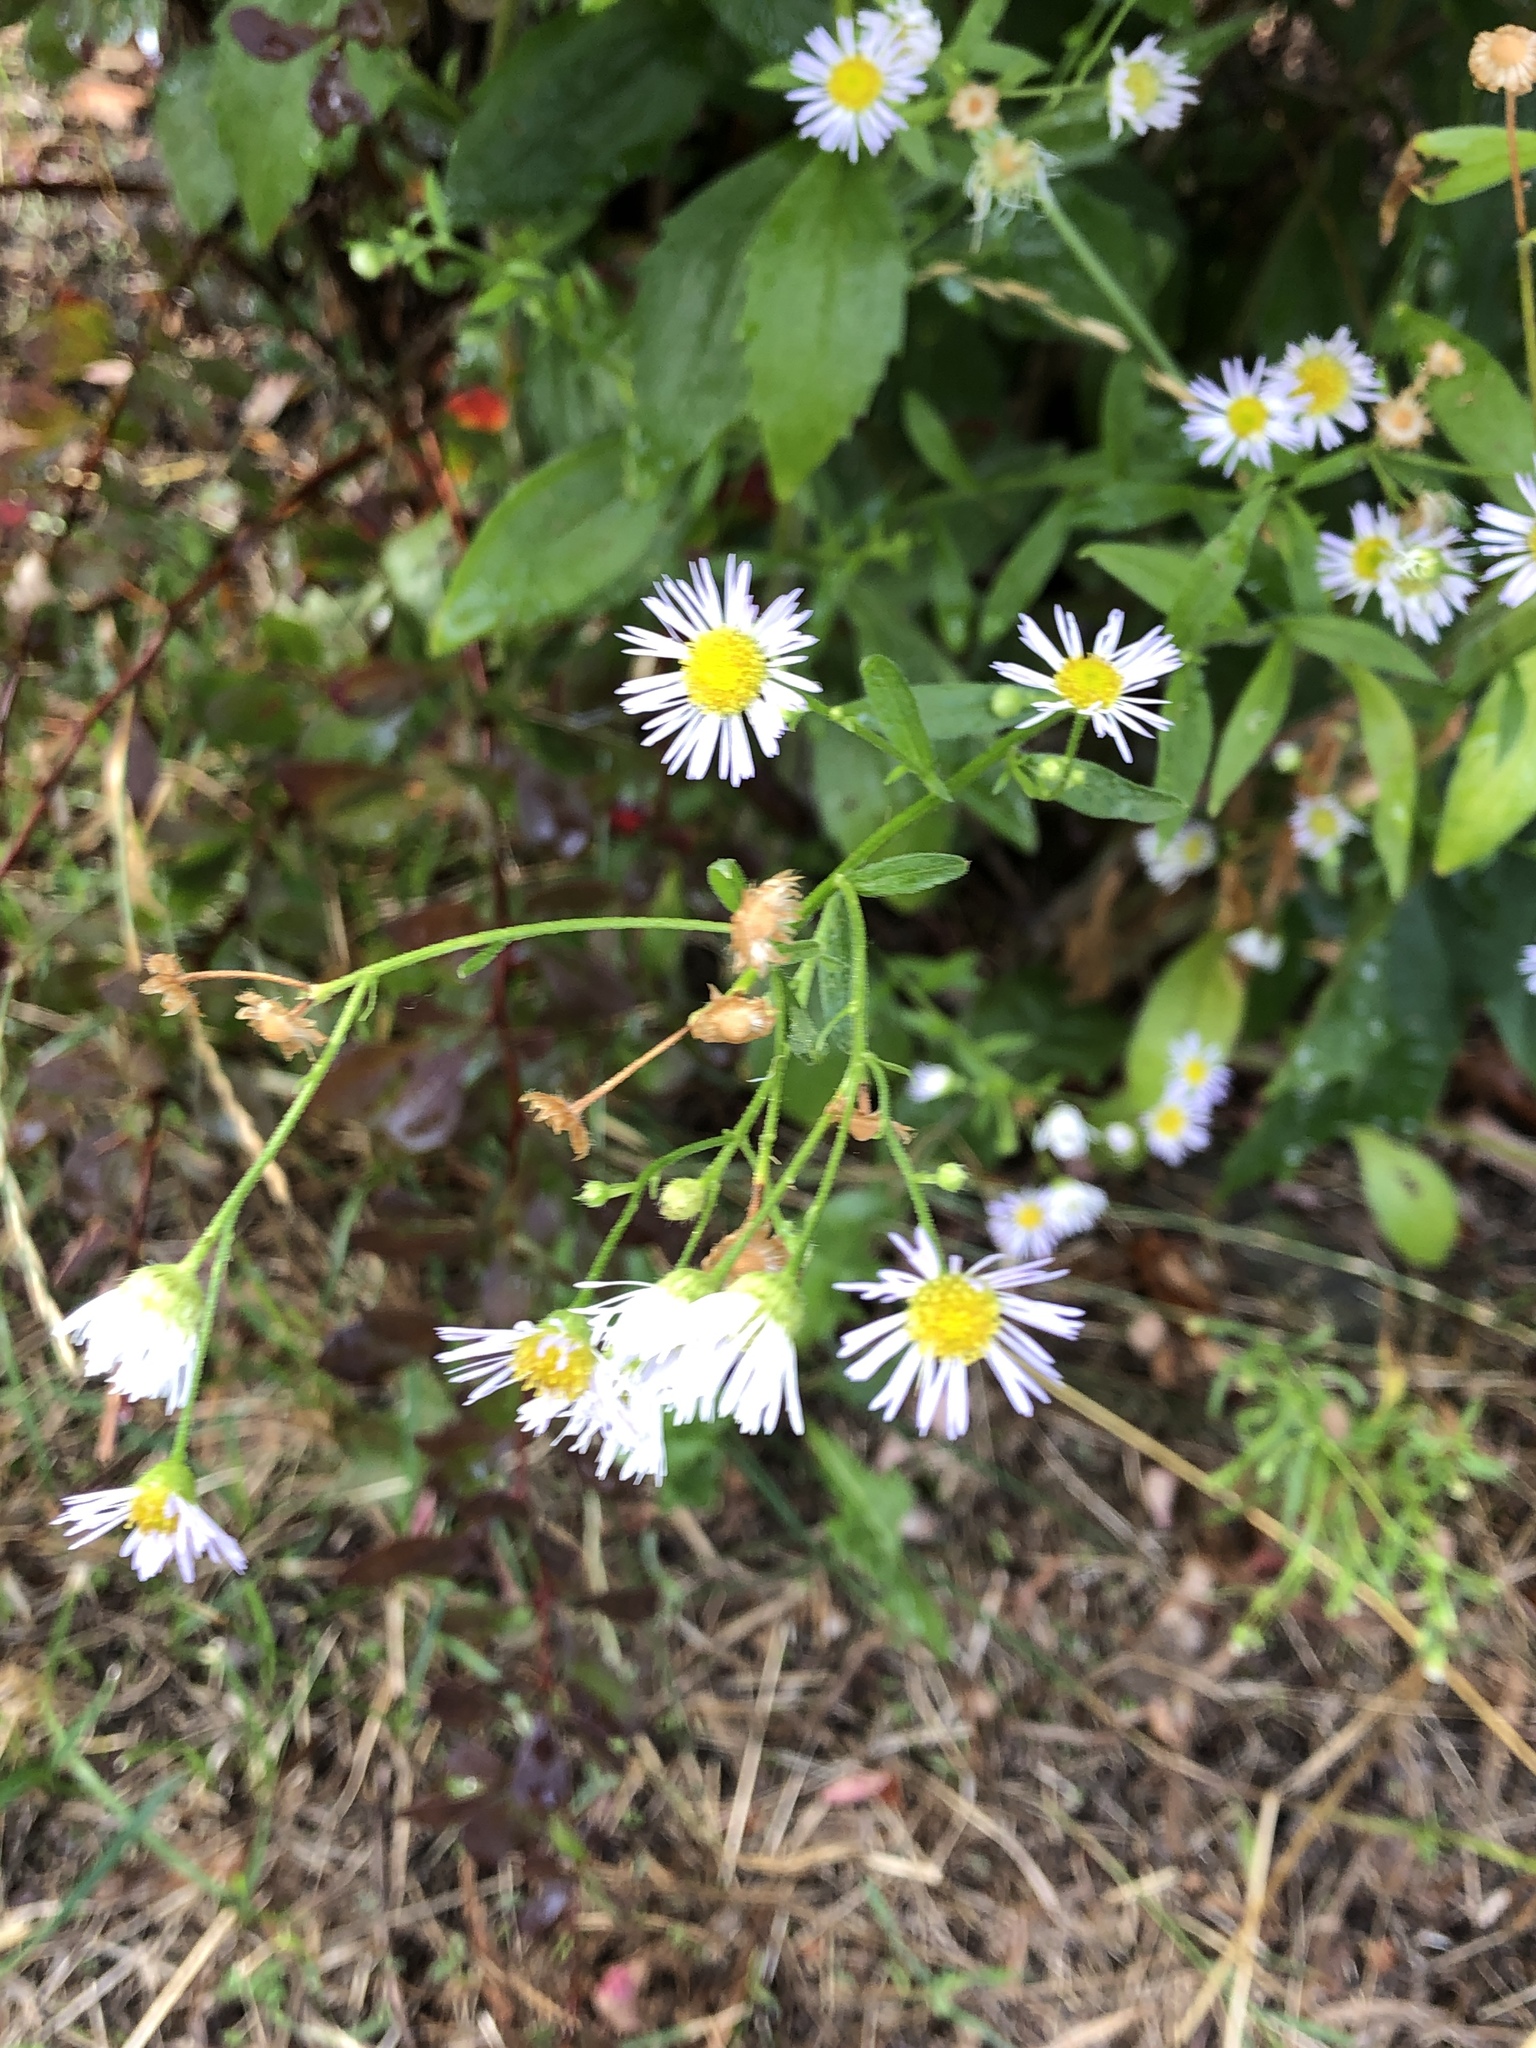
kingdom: Plantae
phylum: Tracheophyta
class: Magnoliopsida
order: Asterales
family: Asteraceae
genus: Erigeron
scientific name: Erigeron annuus
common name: Tall fleabane
